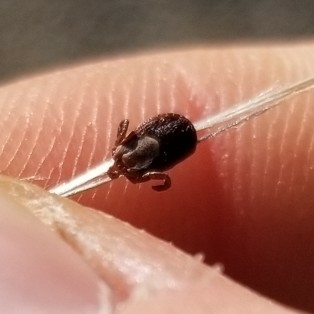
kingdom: Animalia
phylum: Arthropoda
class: Arachnida
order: Ixodida
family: Ixodidae
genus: Dermacentor
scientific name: Dermacentor occidentalis
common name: Net tick
